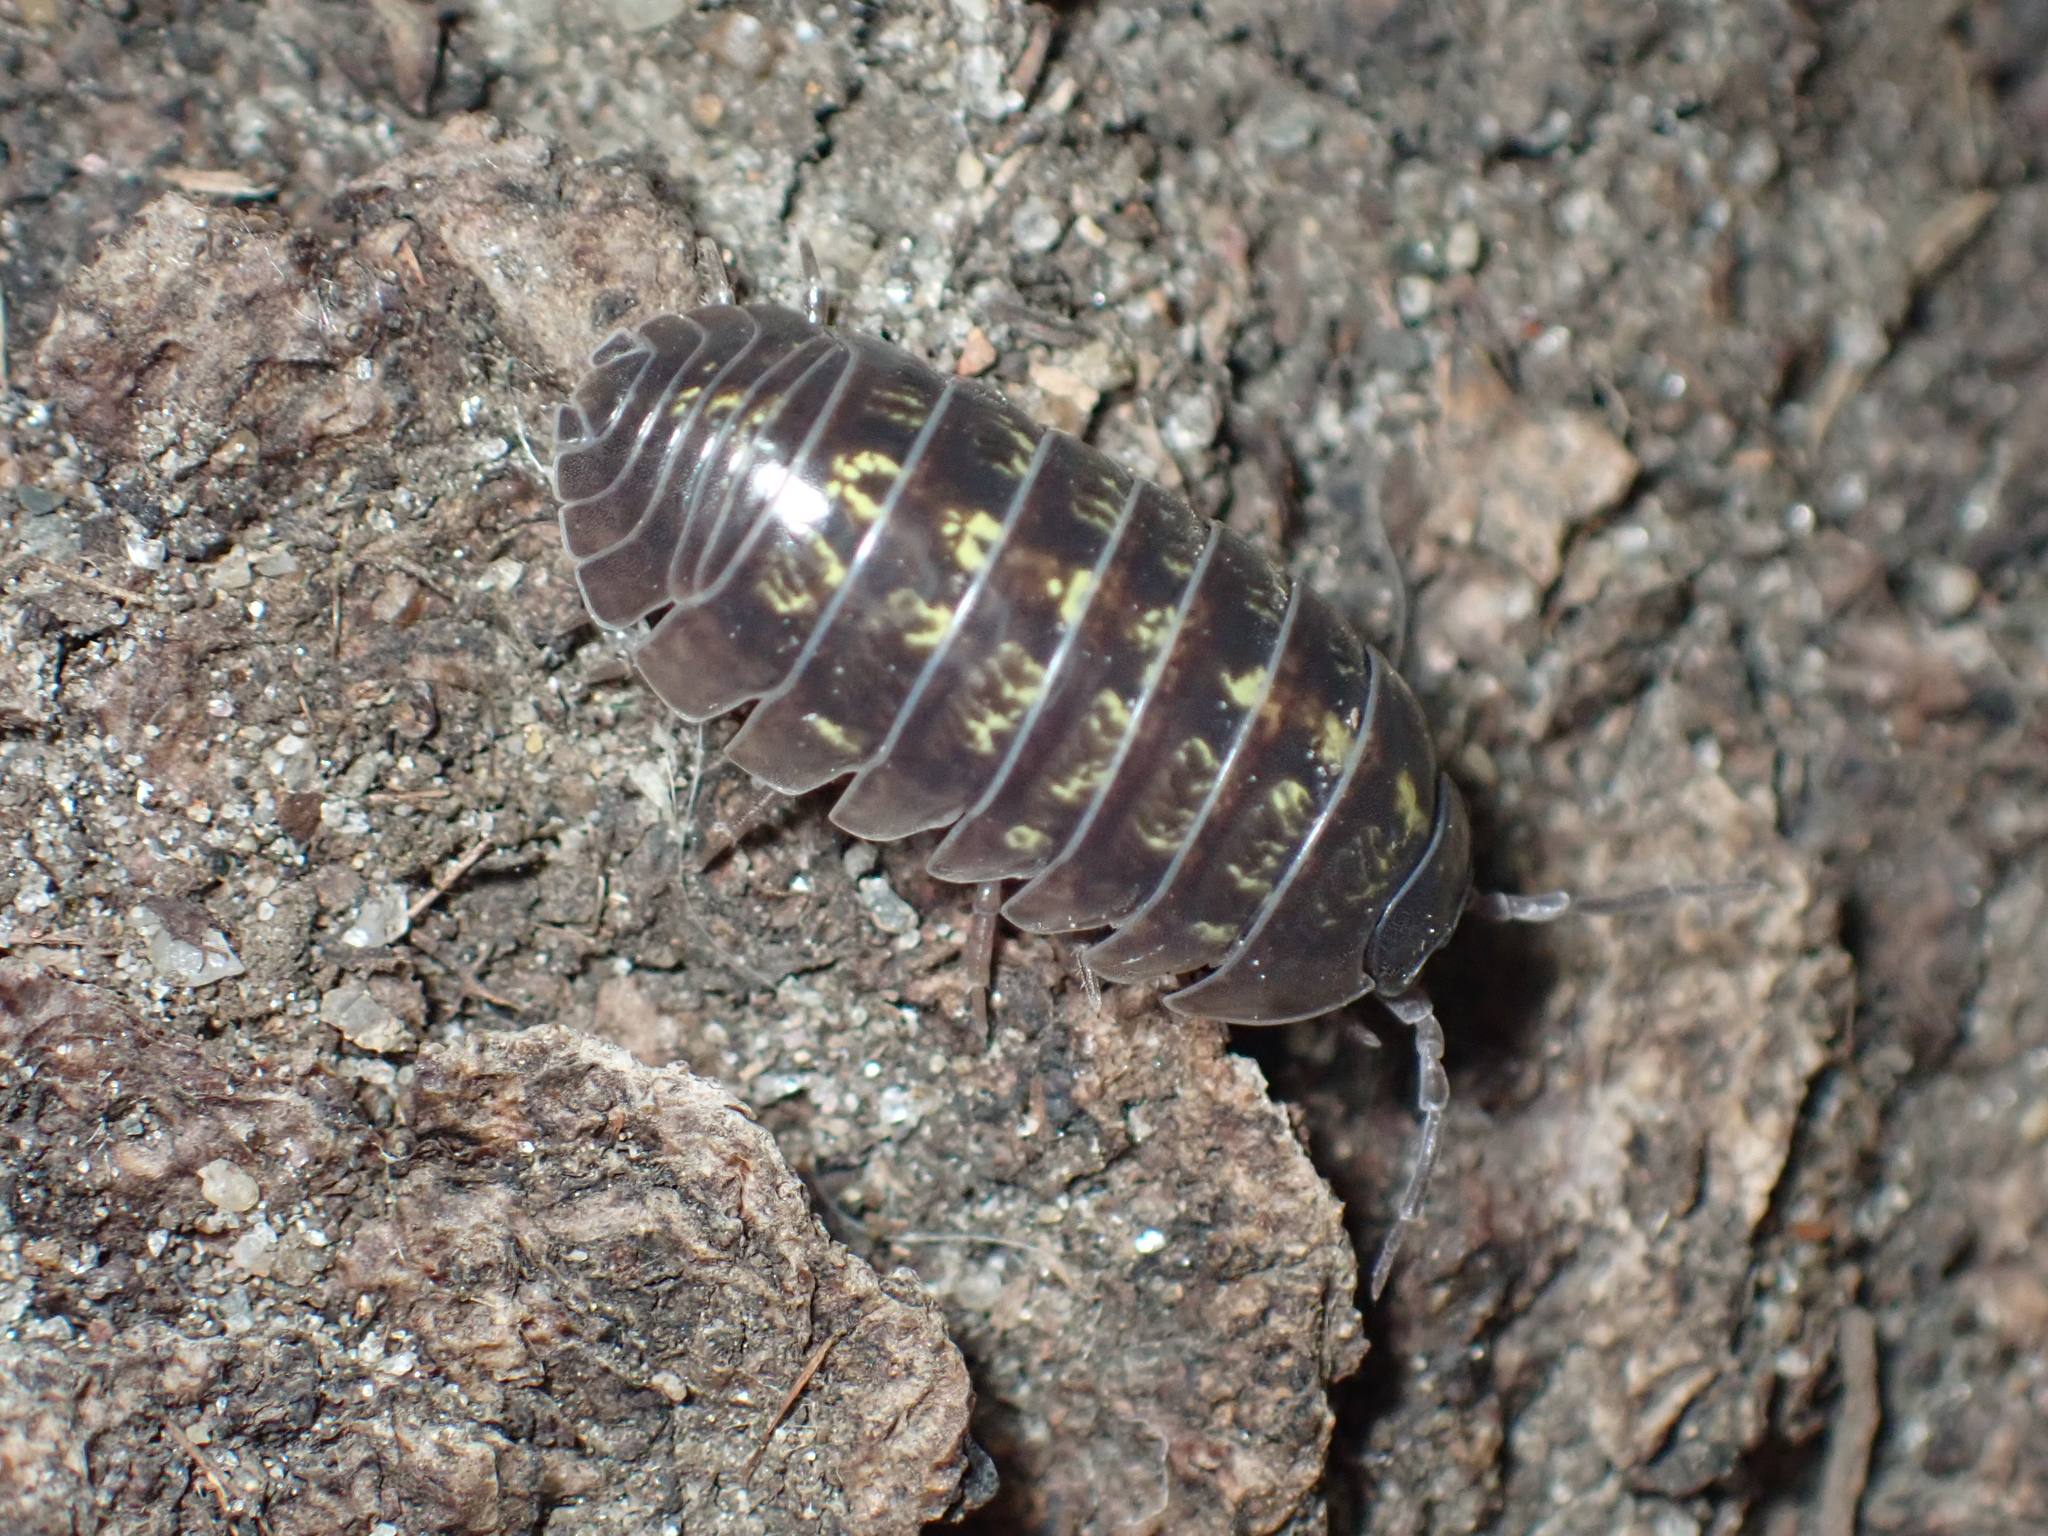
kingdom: Animalia
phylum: Arthropoda
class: Malacostraca
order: Isopoda
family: Armadillidiidae
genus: Armadillidium
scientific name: Armadillidium vulgare
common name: Common pill woodlouse
